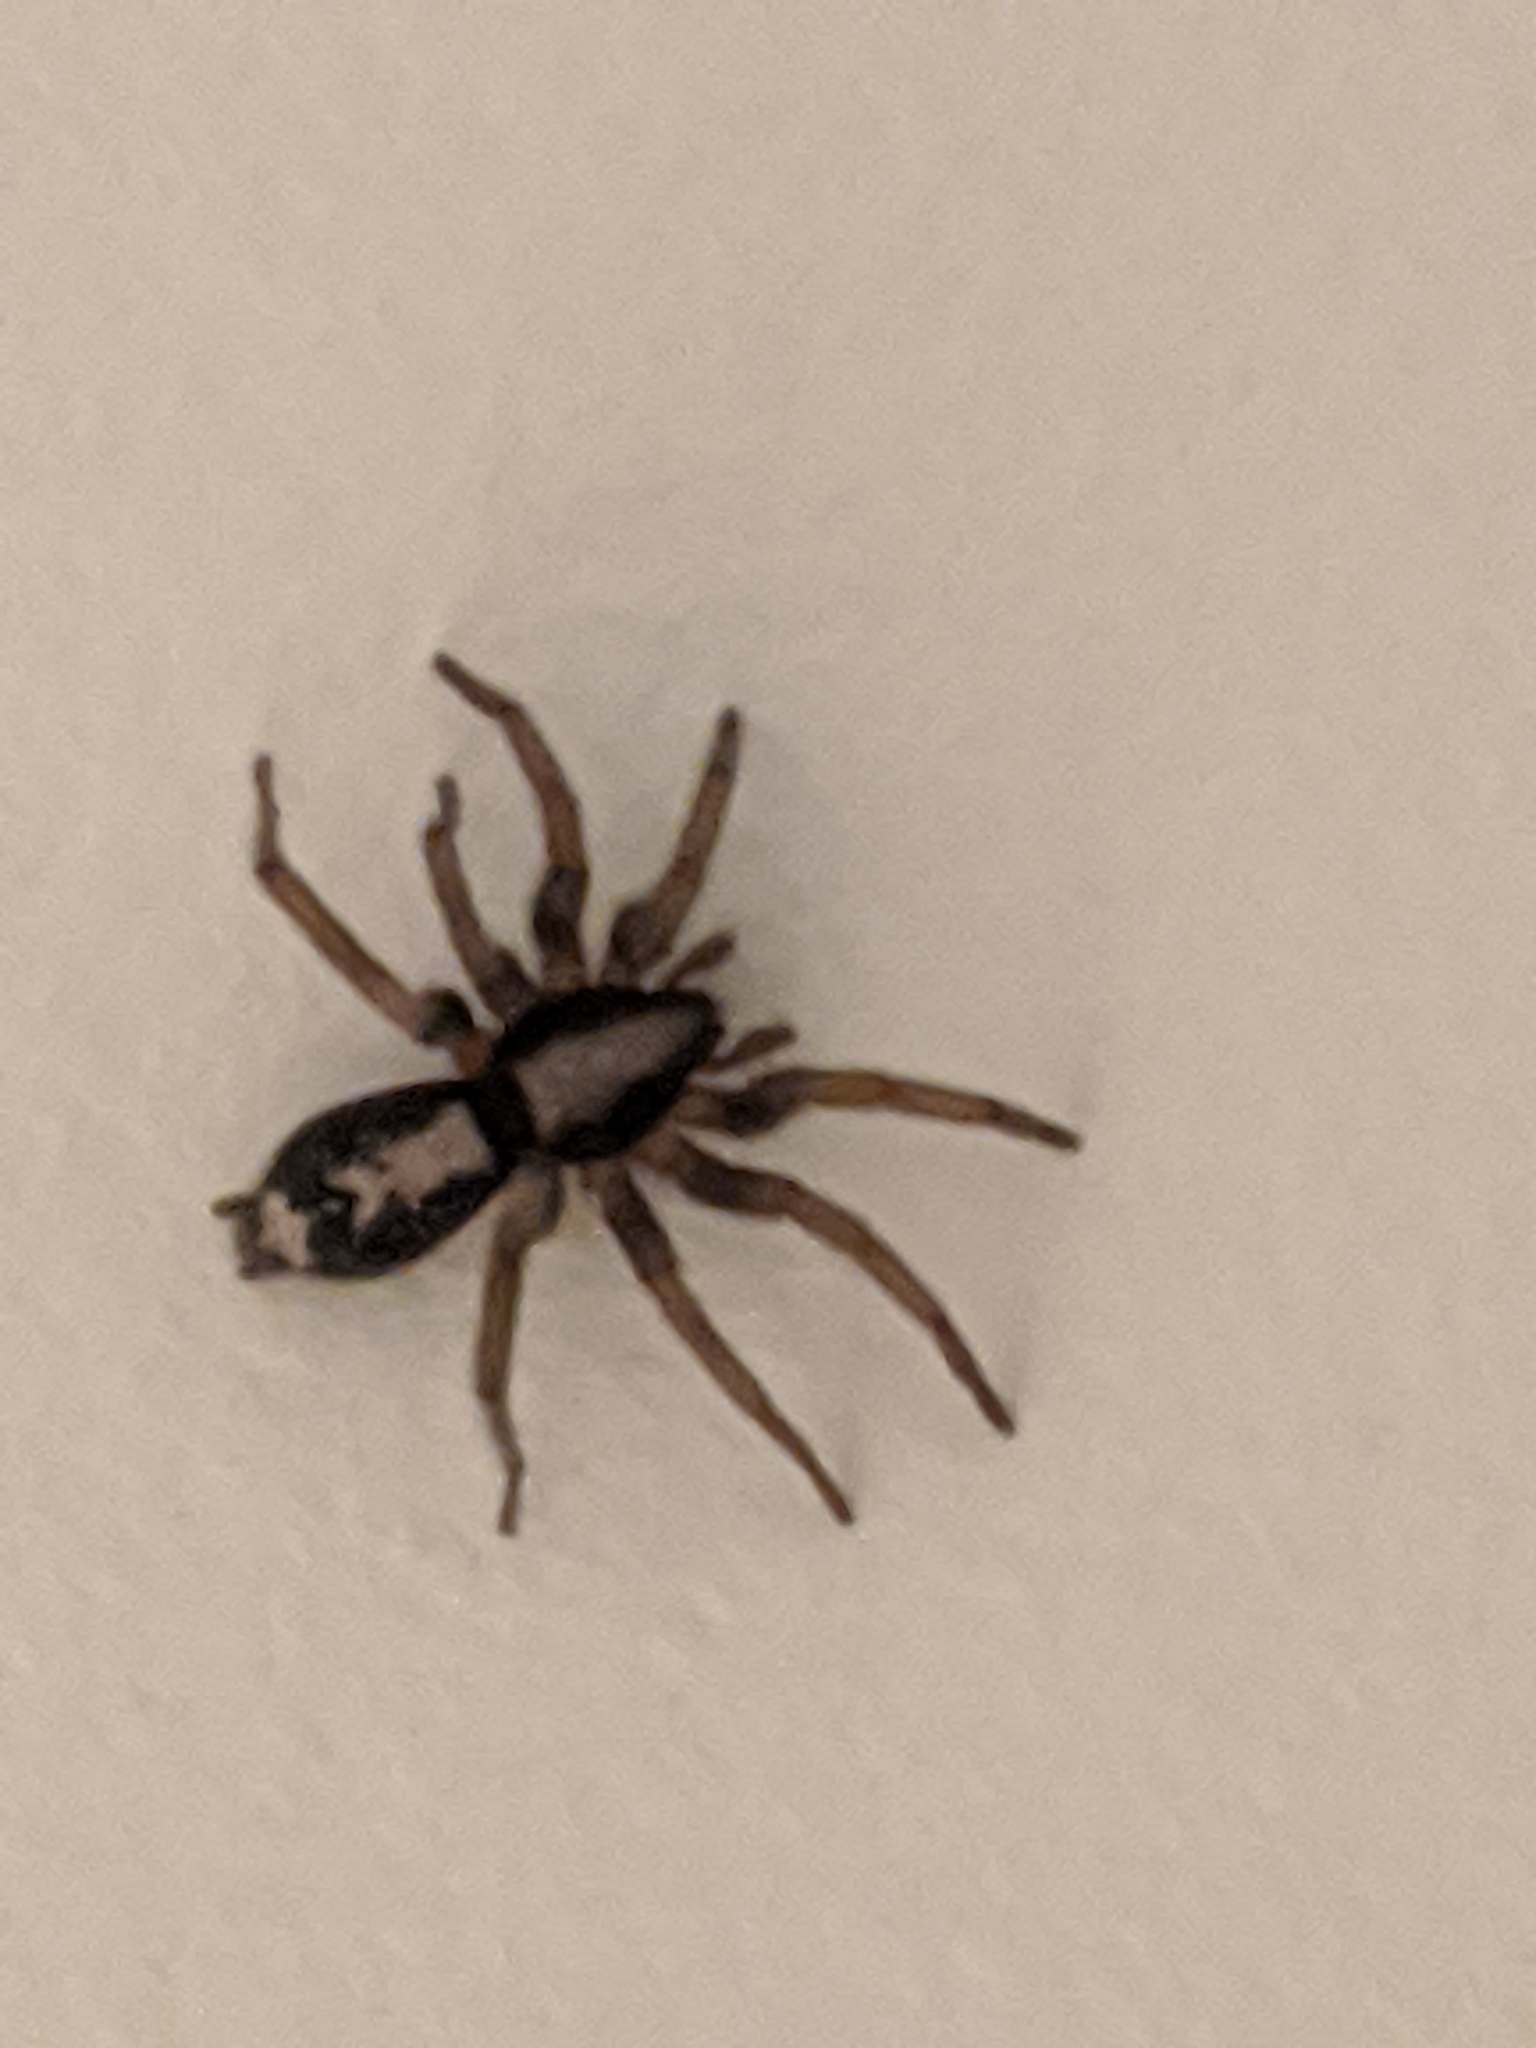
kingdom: Animalia
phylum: Arthropoda
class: Arachnida
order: Araneae
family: Gnaphosidae
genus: Herpyllus
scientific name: Herpyllus ecclesiasticus
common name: Eastern parson spider
